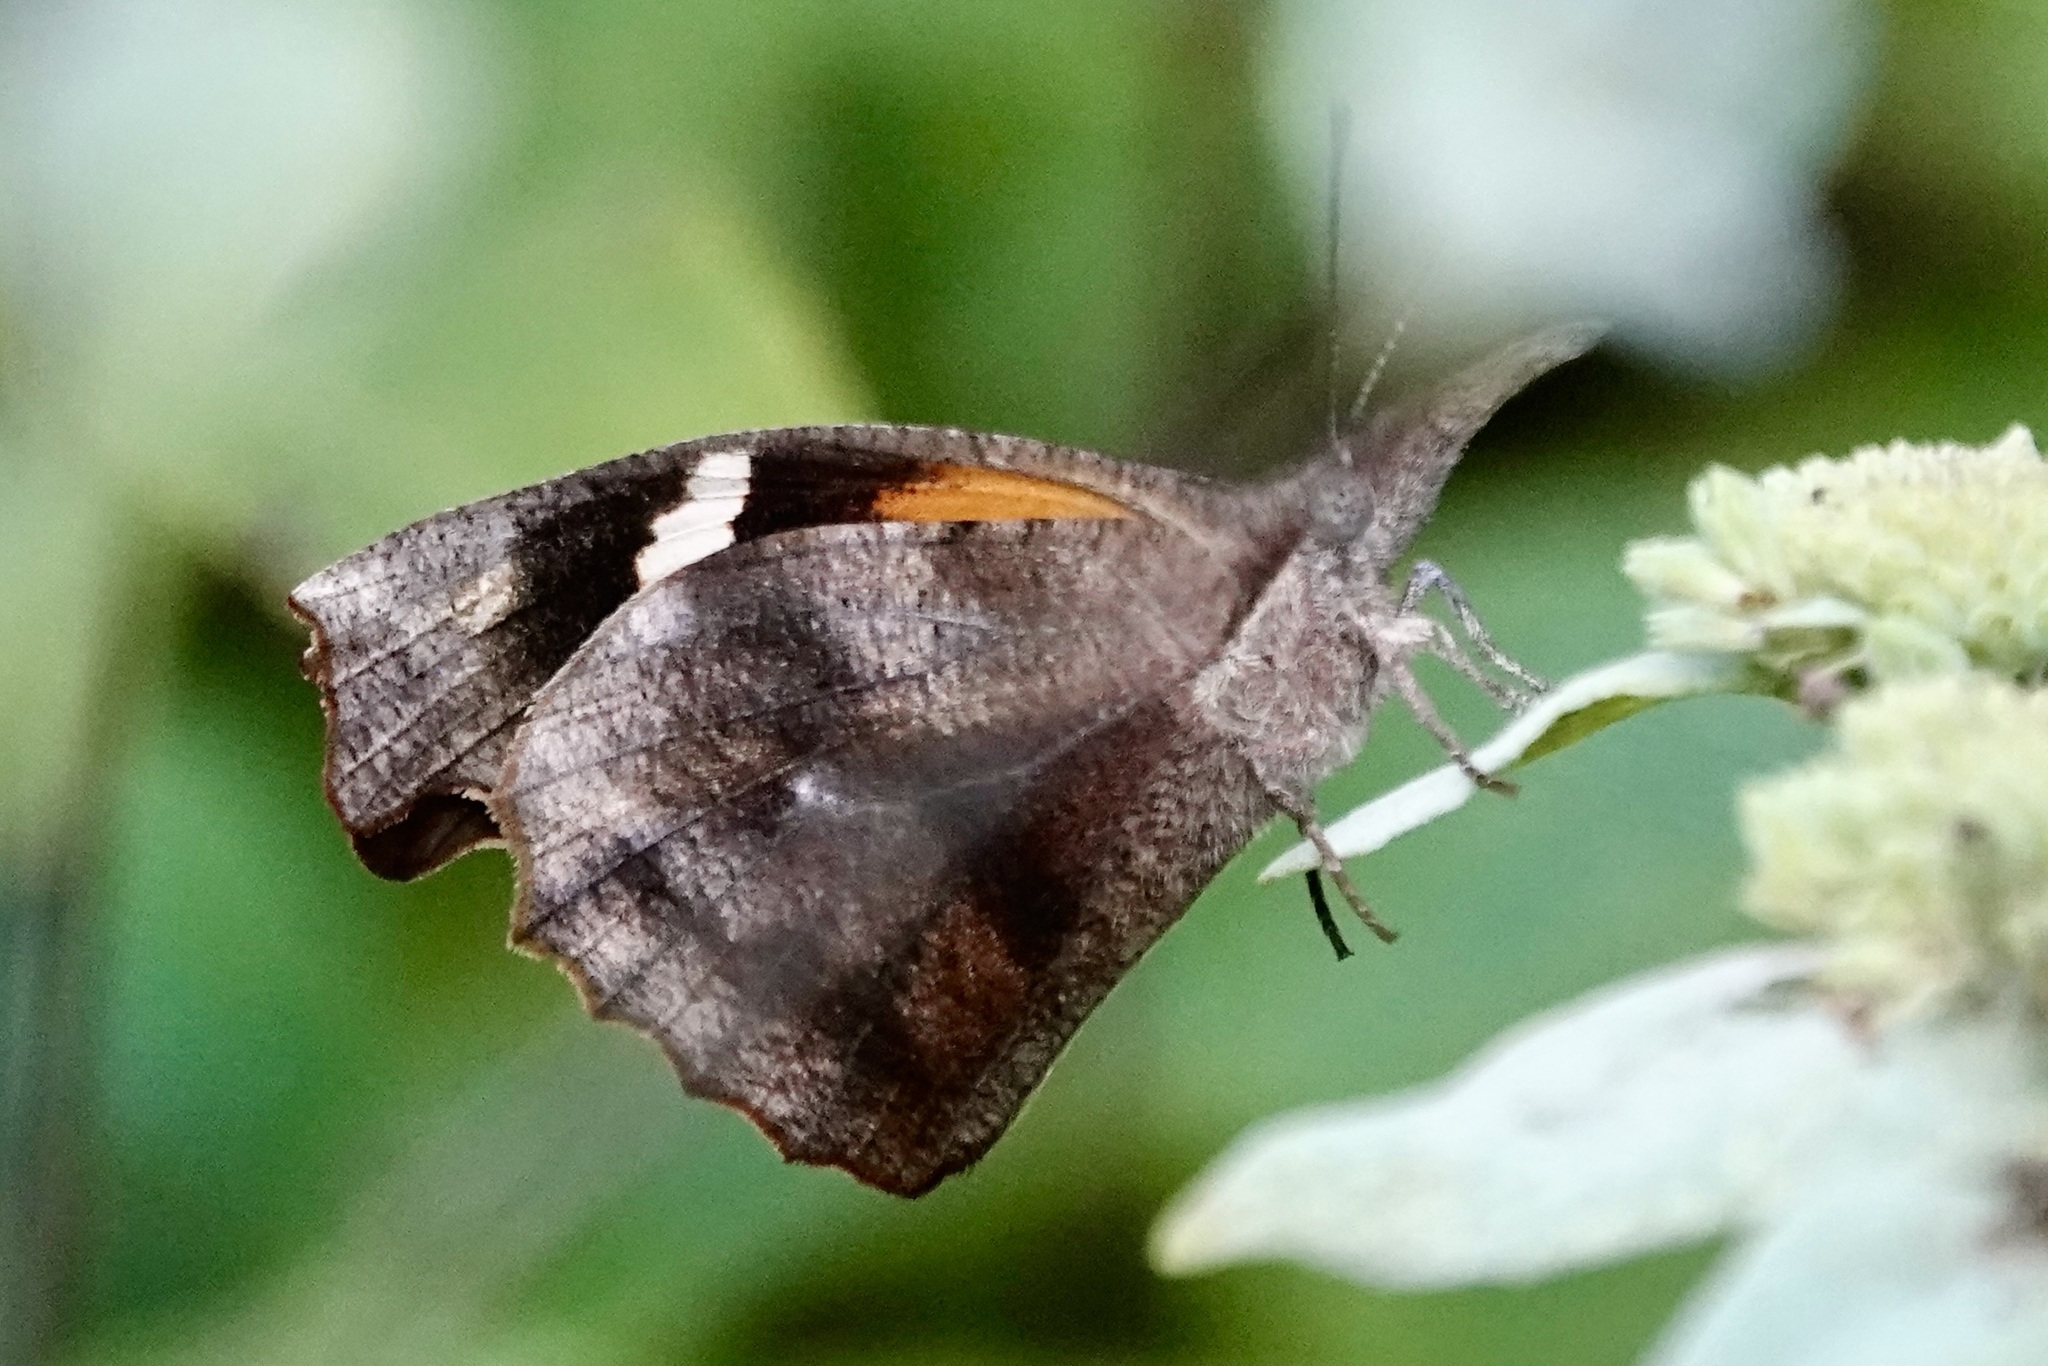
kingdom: Animalia
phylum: Arthropoda
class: Insecta
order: Lepidoptera
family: Nymphalidae
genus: Libytheana
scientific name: Libytheana carinenta
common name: American snout
